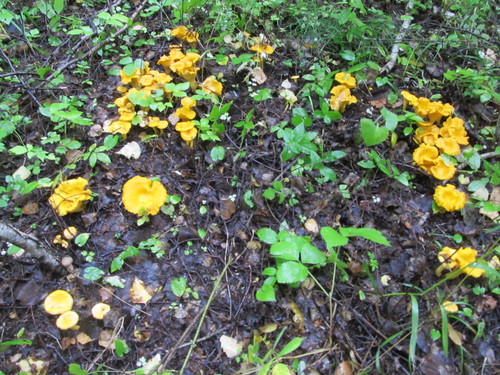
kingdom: Fungi
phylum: Basidiomycota
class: Agaricomycetes
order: Cantharellales
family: Hydnaceae
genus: Cantharellus
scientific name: Cantharellus cibarius
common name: Chanterelle
